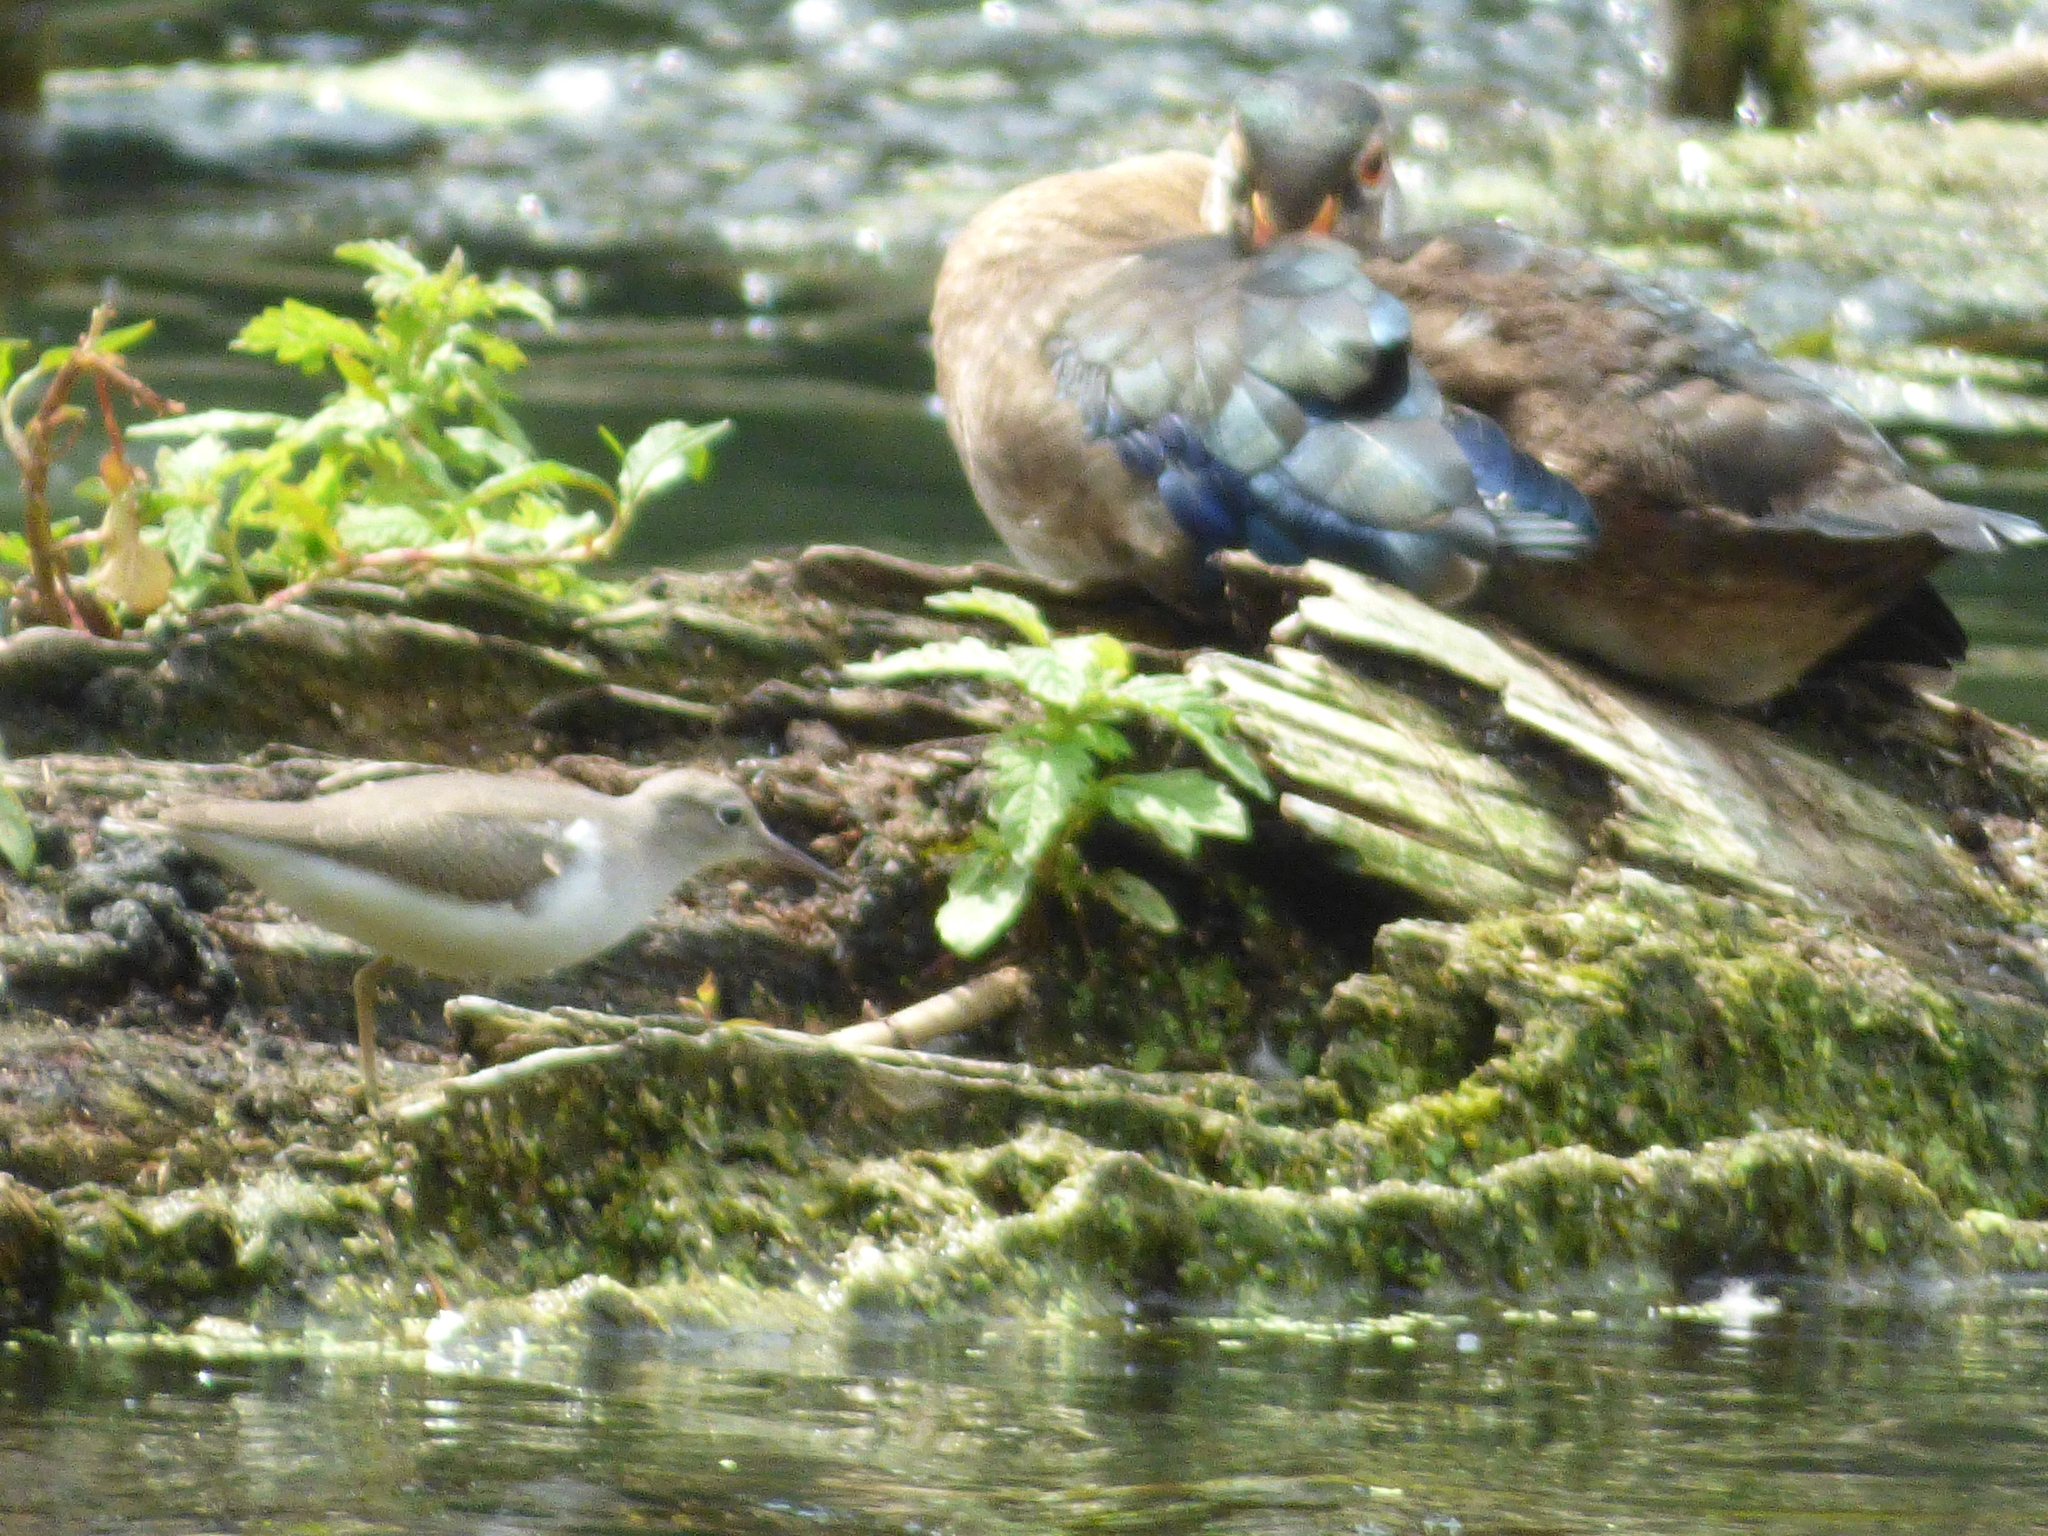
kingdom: Animalia
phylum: Chordata
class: Aves
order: Anseriformes
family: Anatidae
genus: Aix
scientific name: Aix sponsa
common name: Wood duck
